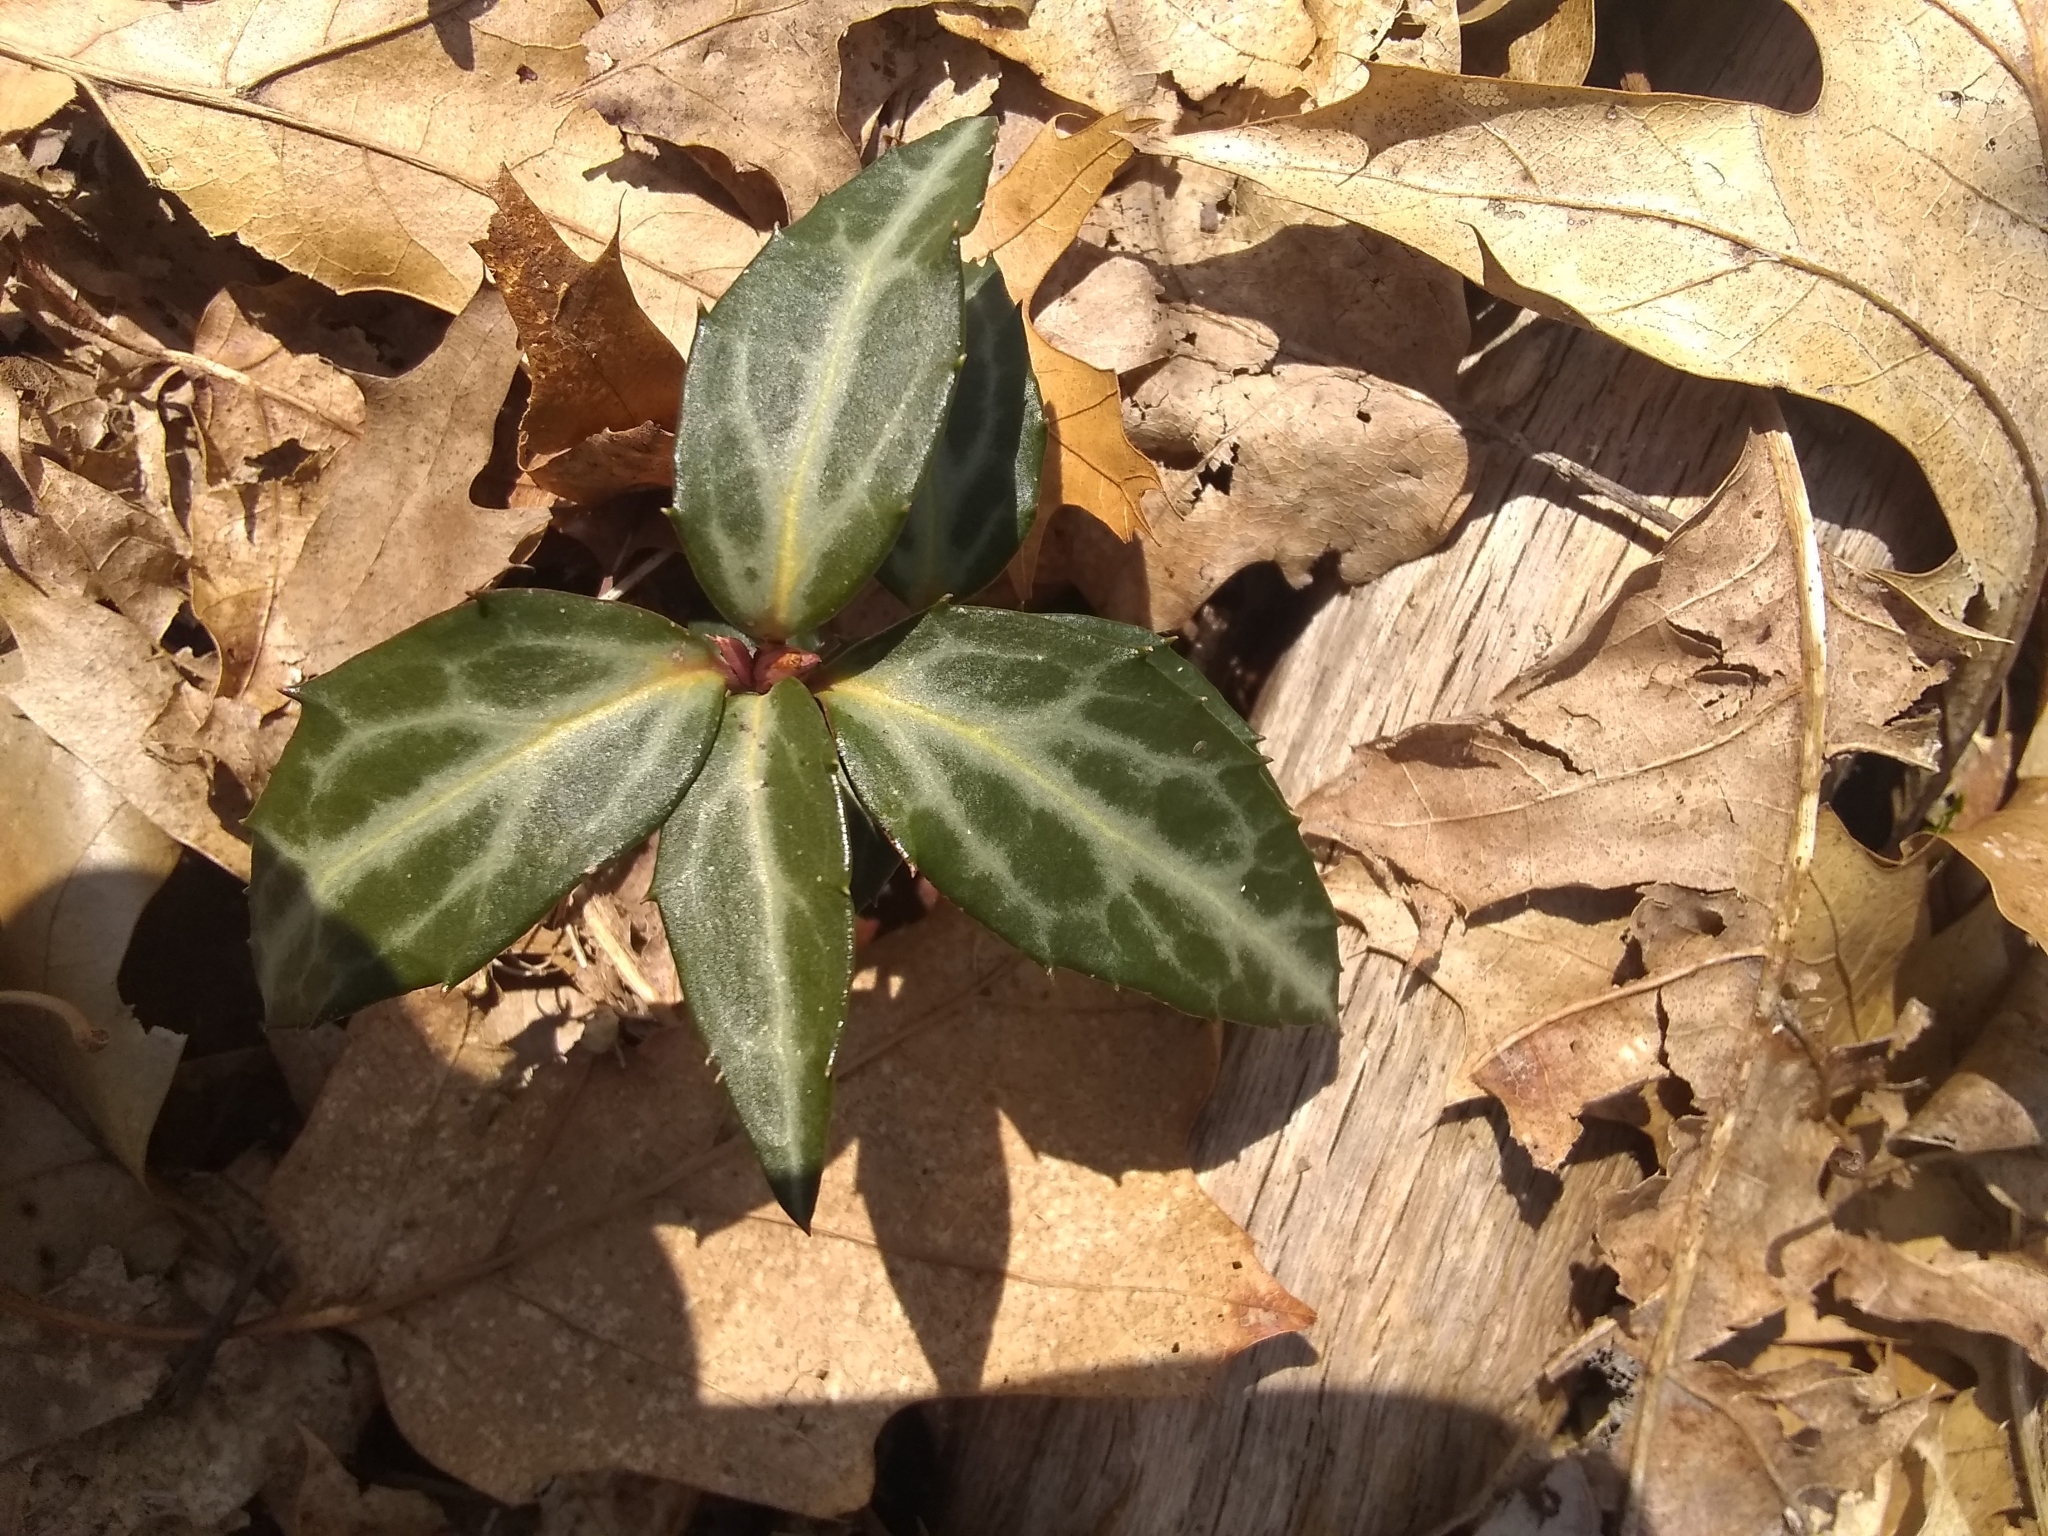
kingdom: Plantae
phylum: Tracheophyta
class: Magnoliopsida
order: Ericales
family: Ericaceae
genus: Chimaphila
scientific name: Chimaphila maculata
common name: Spotted pipsissewa
